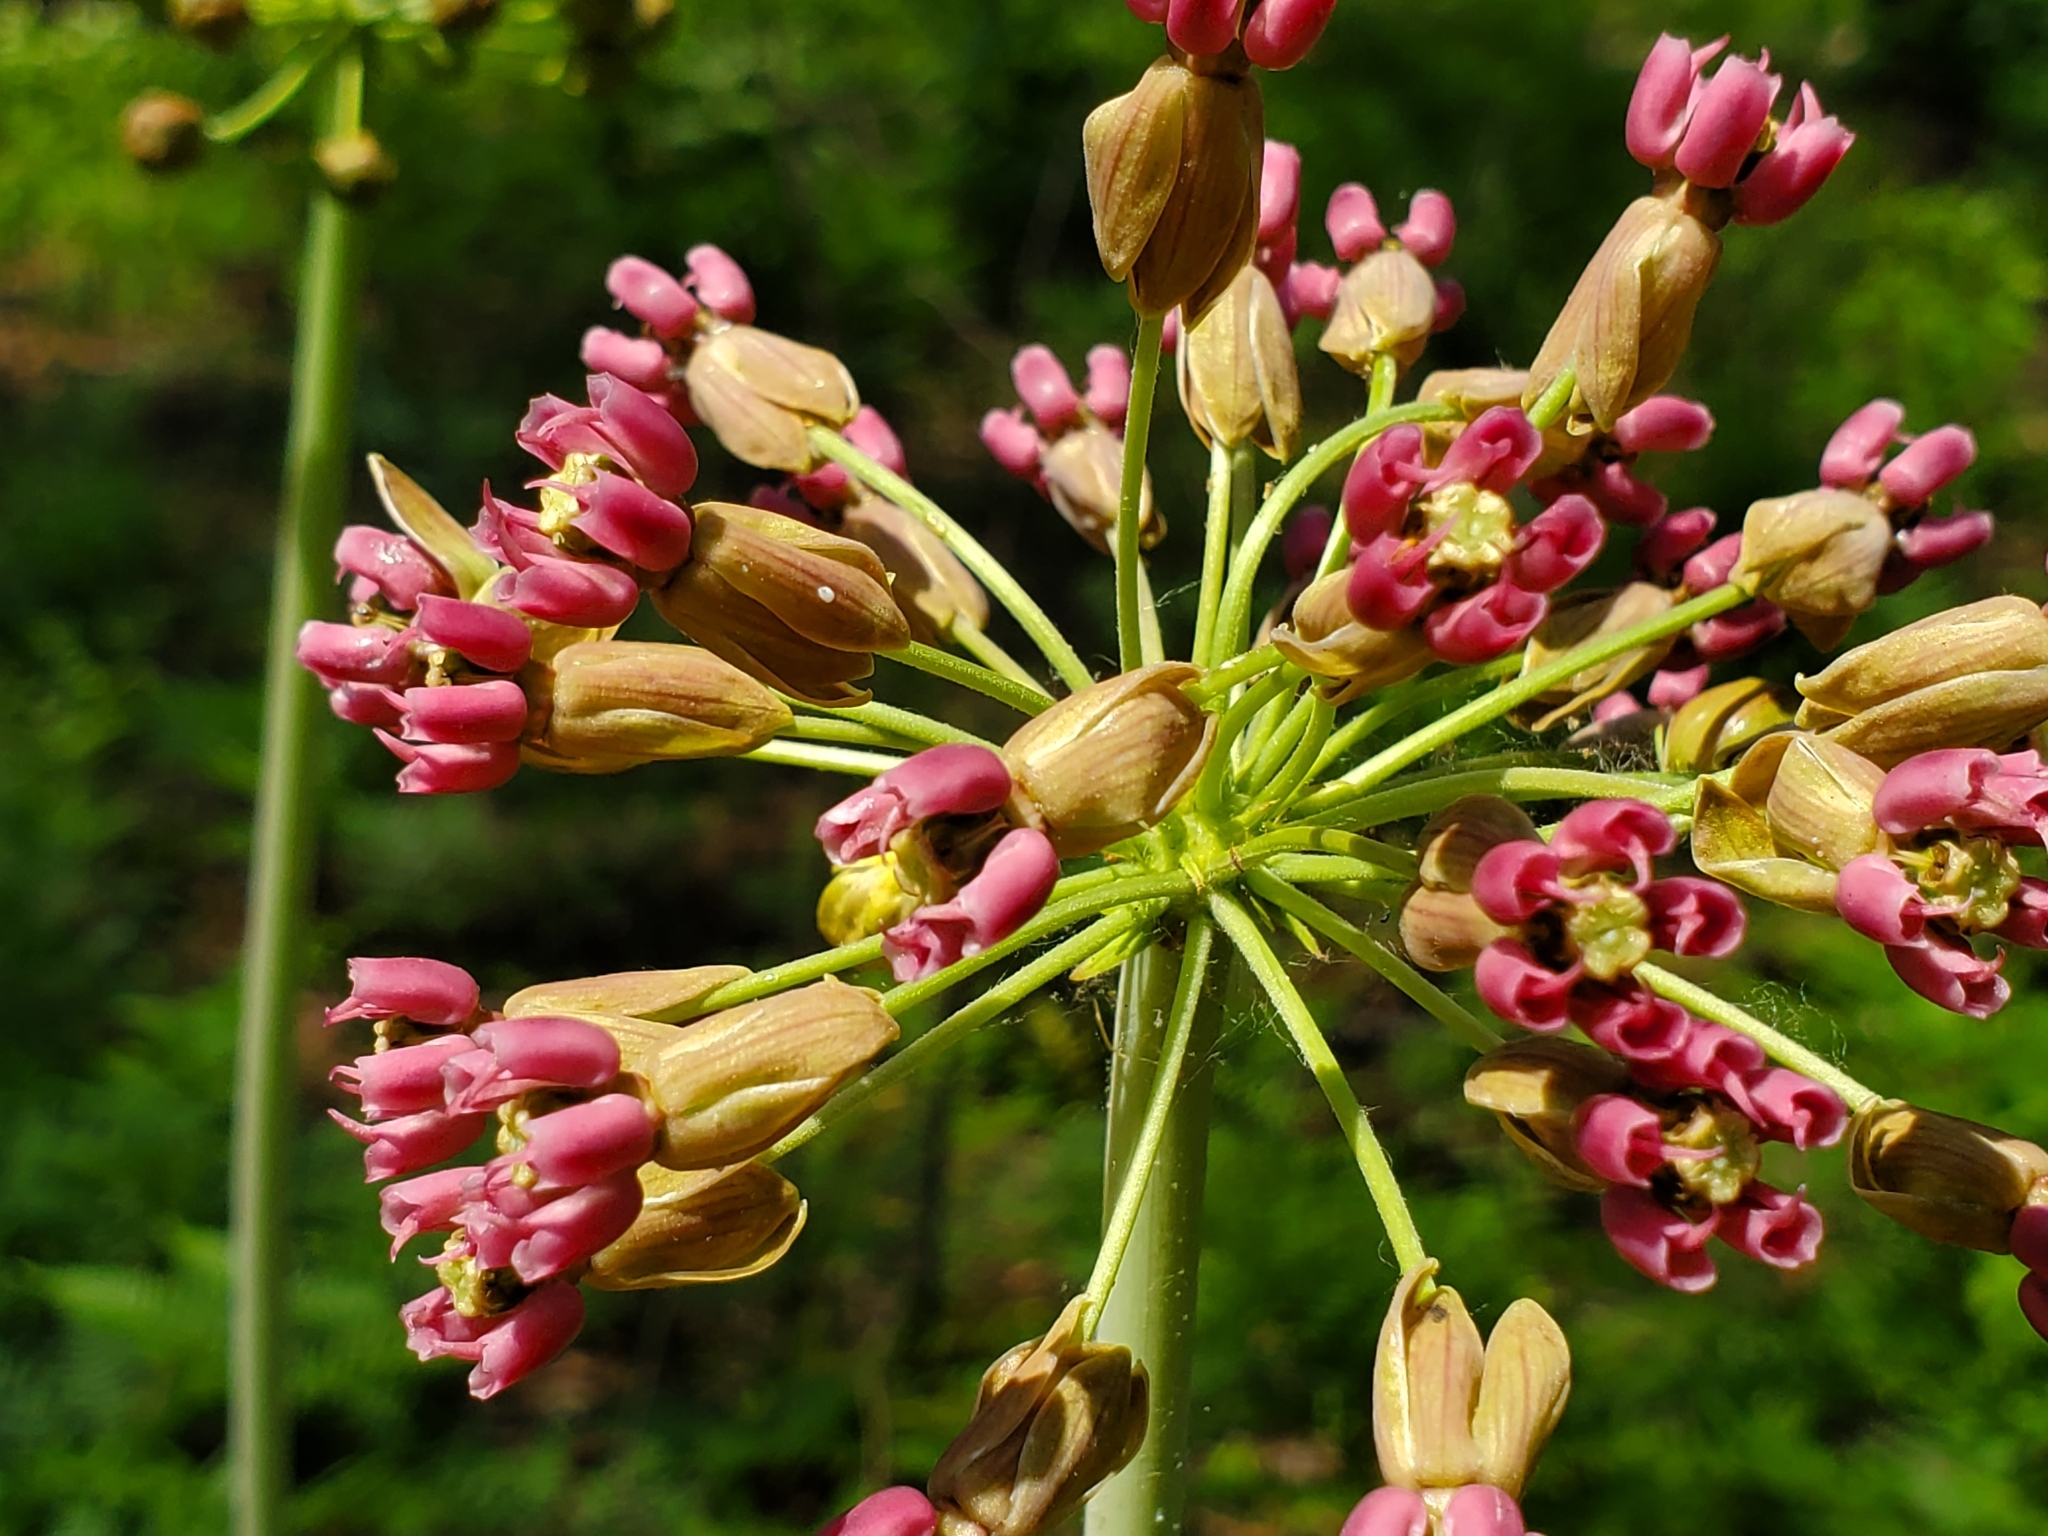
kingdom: Plantae
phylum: Tracheophyta
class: Magnoliopsida
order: Gentianales
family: Apocynaceae
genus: Asclepias
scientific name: Asclepias amplexicaulis
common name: Blunt-leaf milkweed
